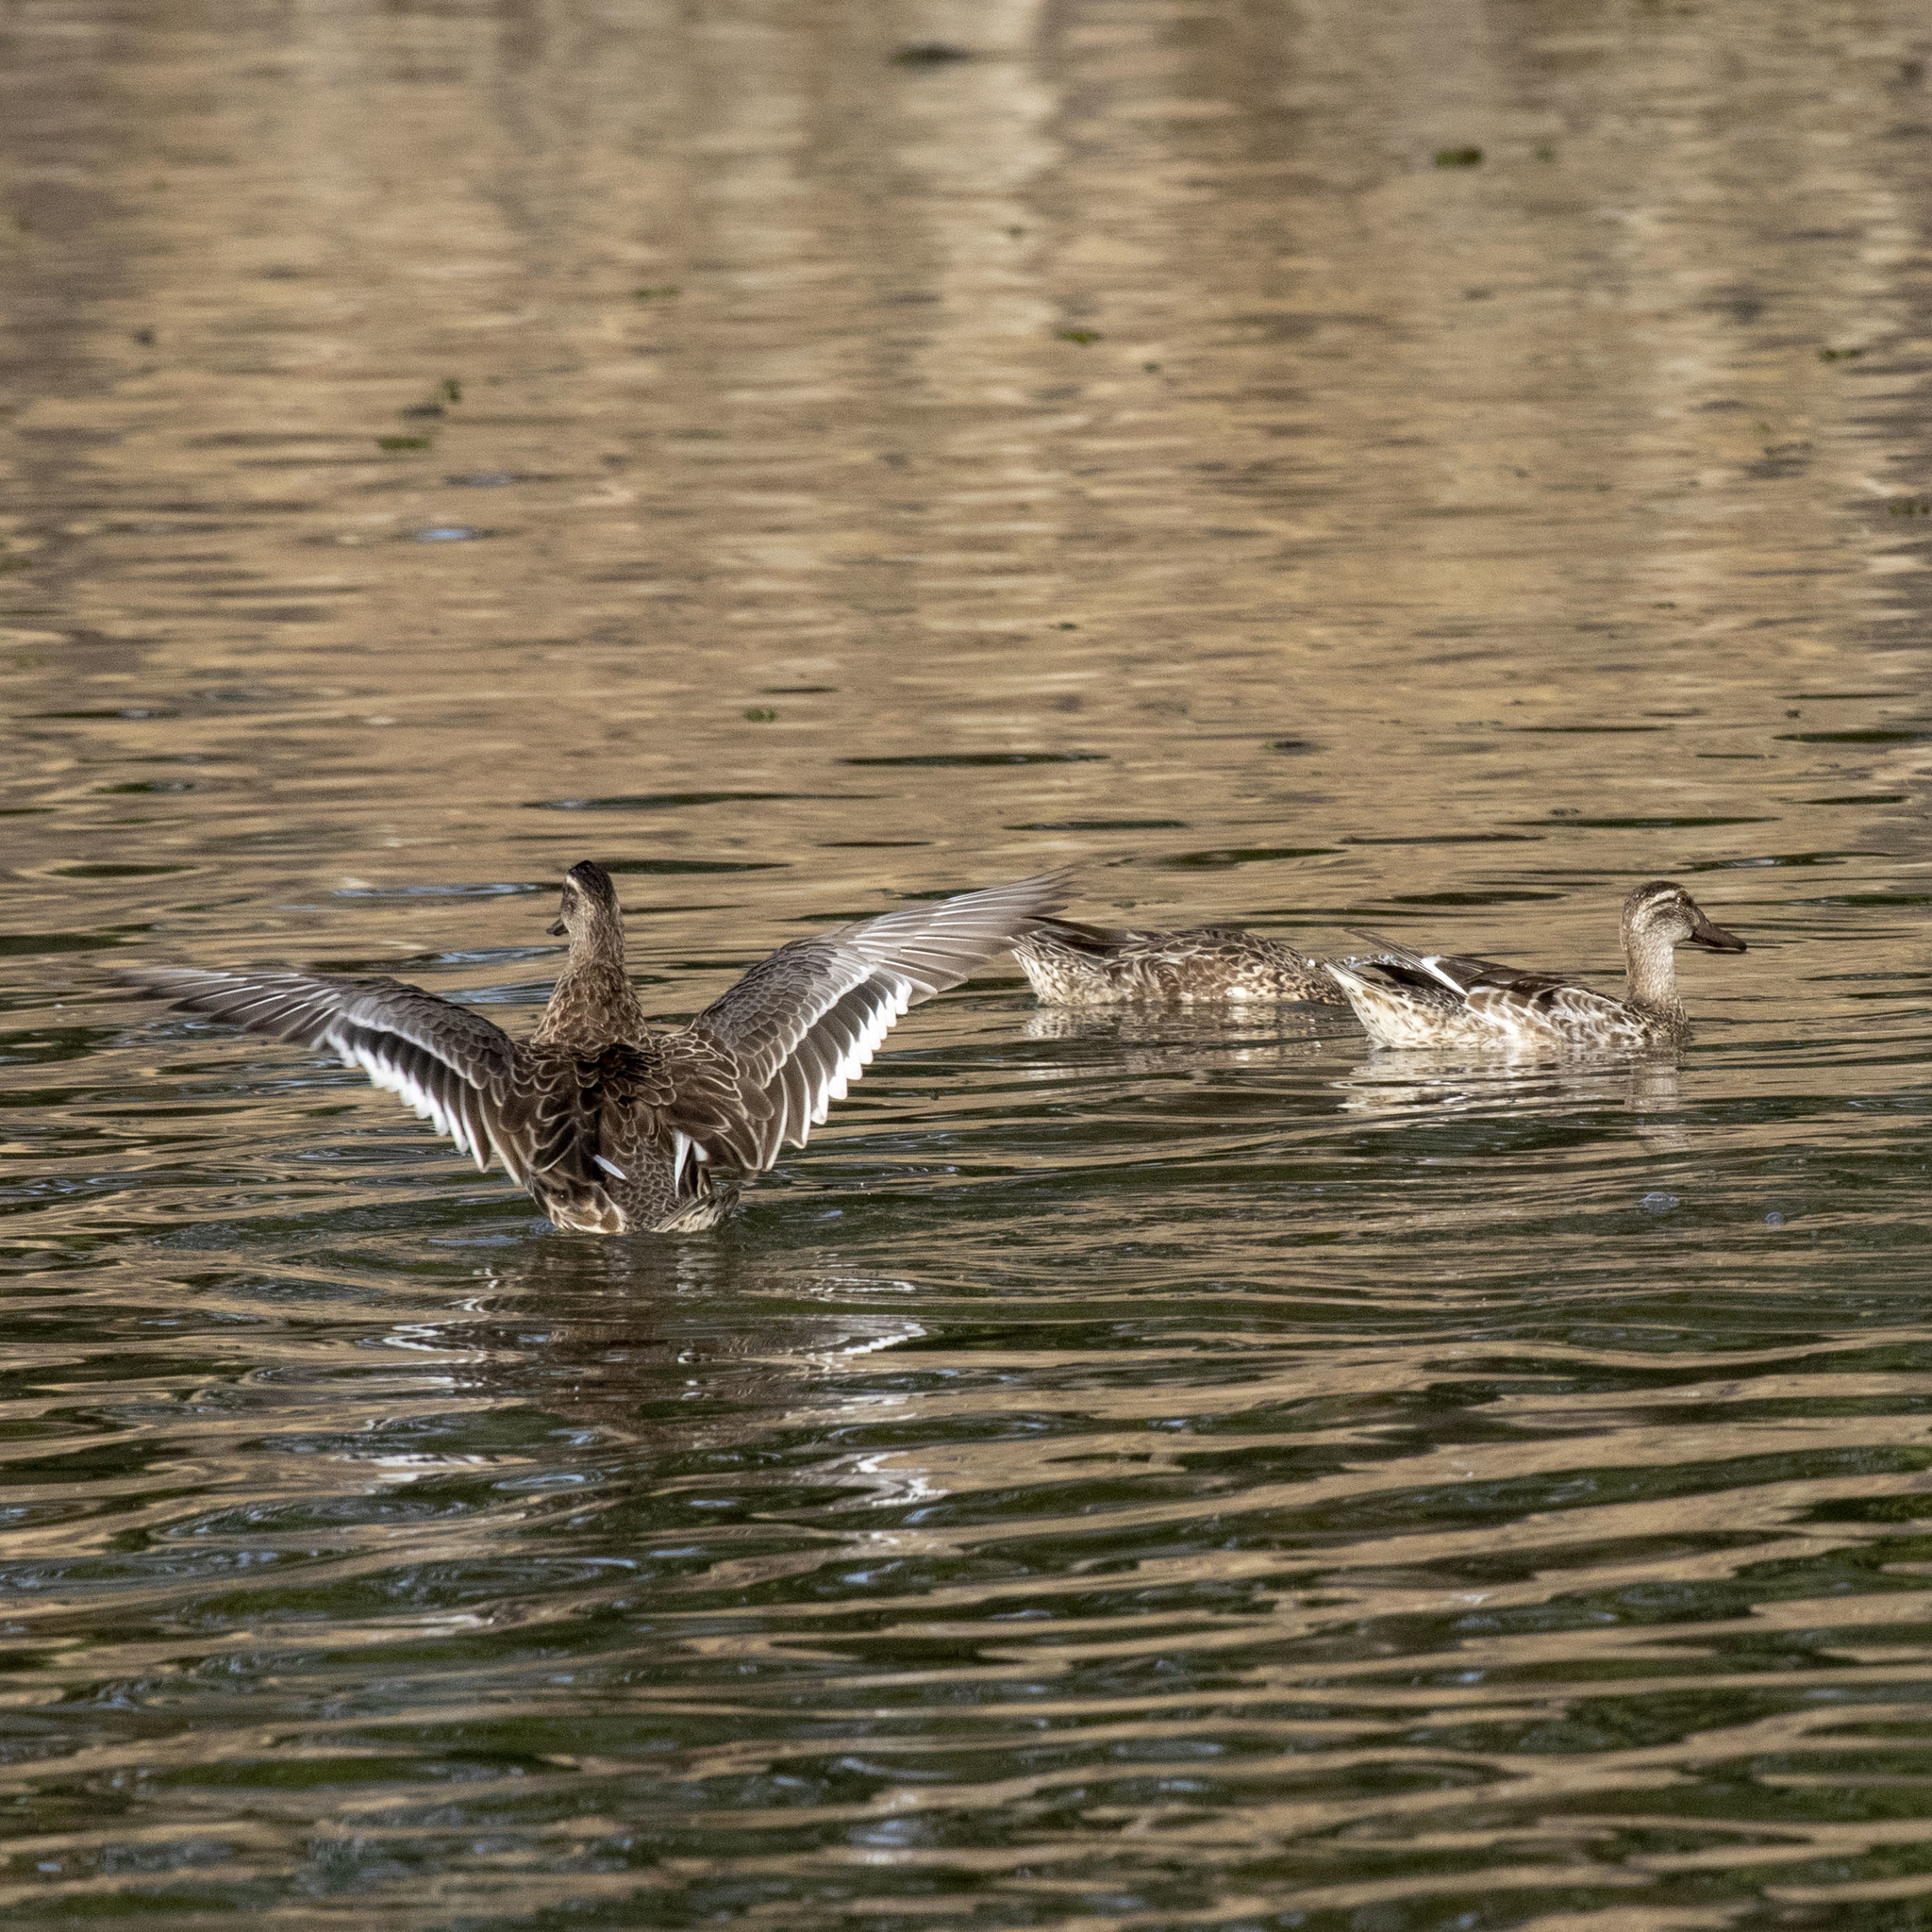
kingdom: Animalia
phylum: Chordata
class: Aves
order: Anseriformes
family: Anatidae
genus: Spatula
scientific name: Spatula querquedula
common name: Garganey
